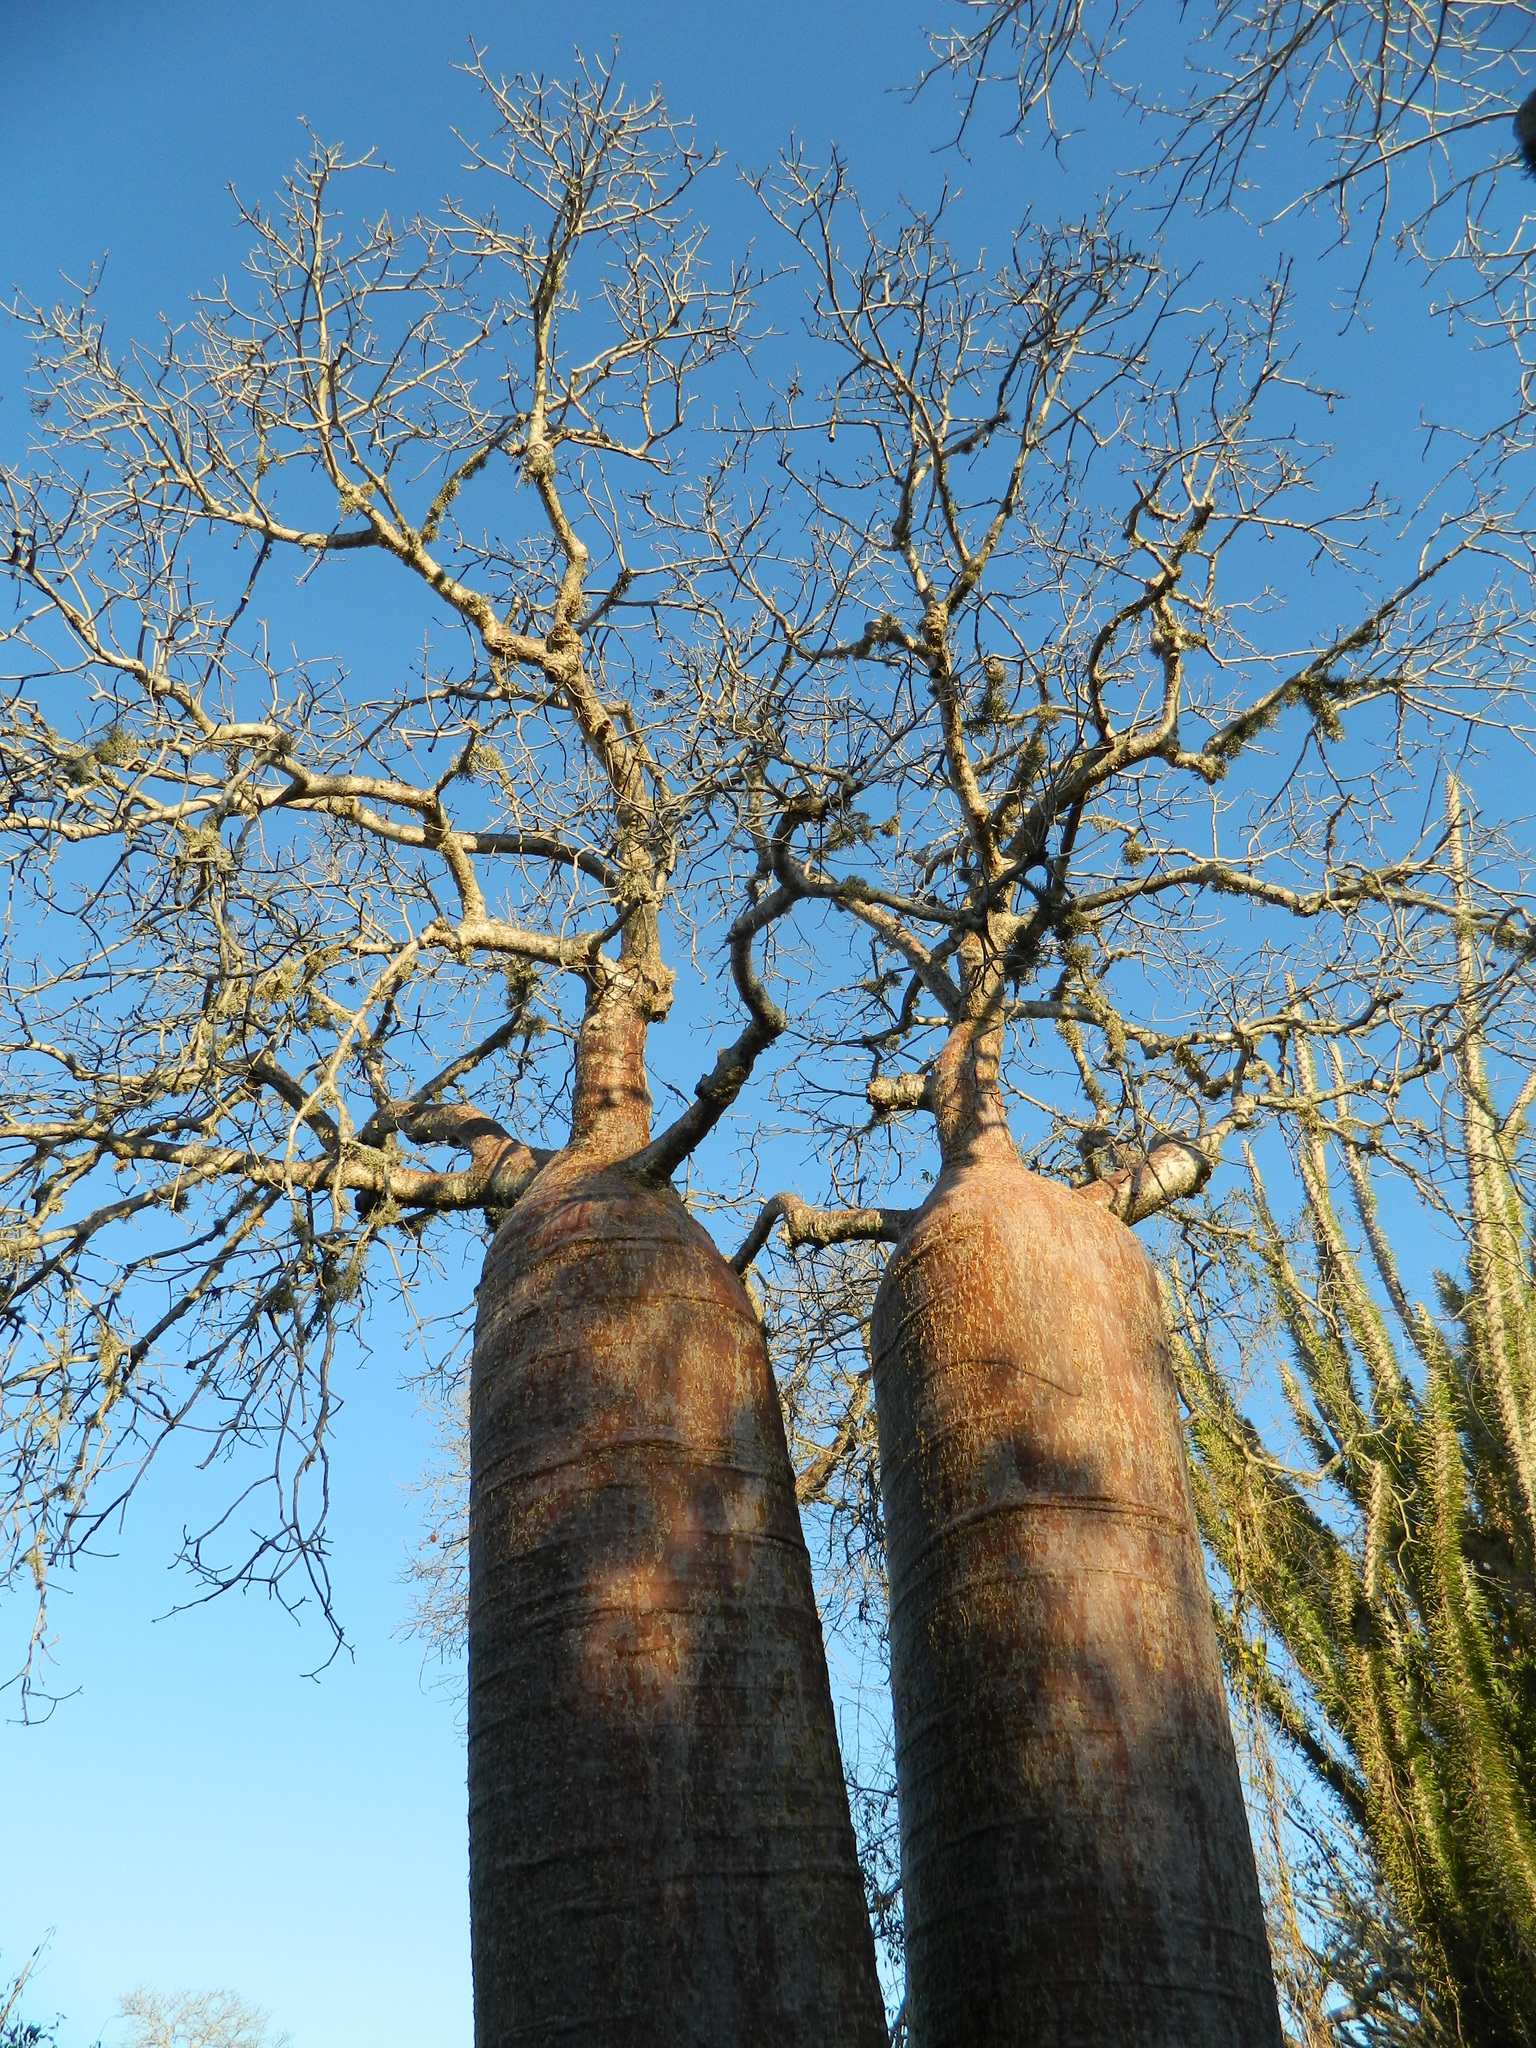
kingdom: Plantae
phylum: Tracheophyta
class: Magnoliopsida
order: Malvales
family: Malvaceae
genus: Adansonia
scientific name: Adansonia rubrostipa
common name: Fony baobab
